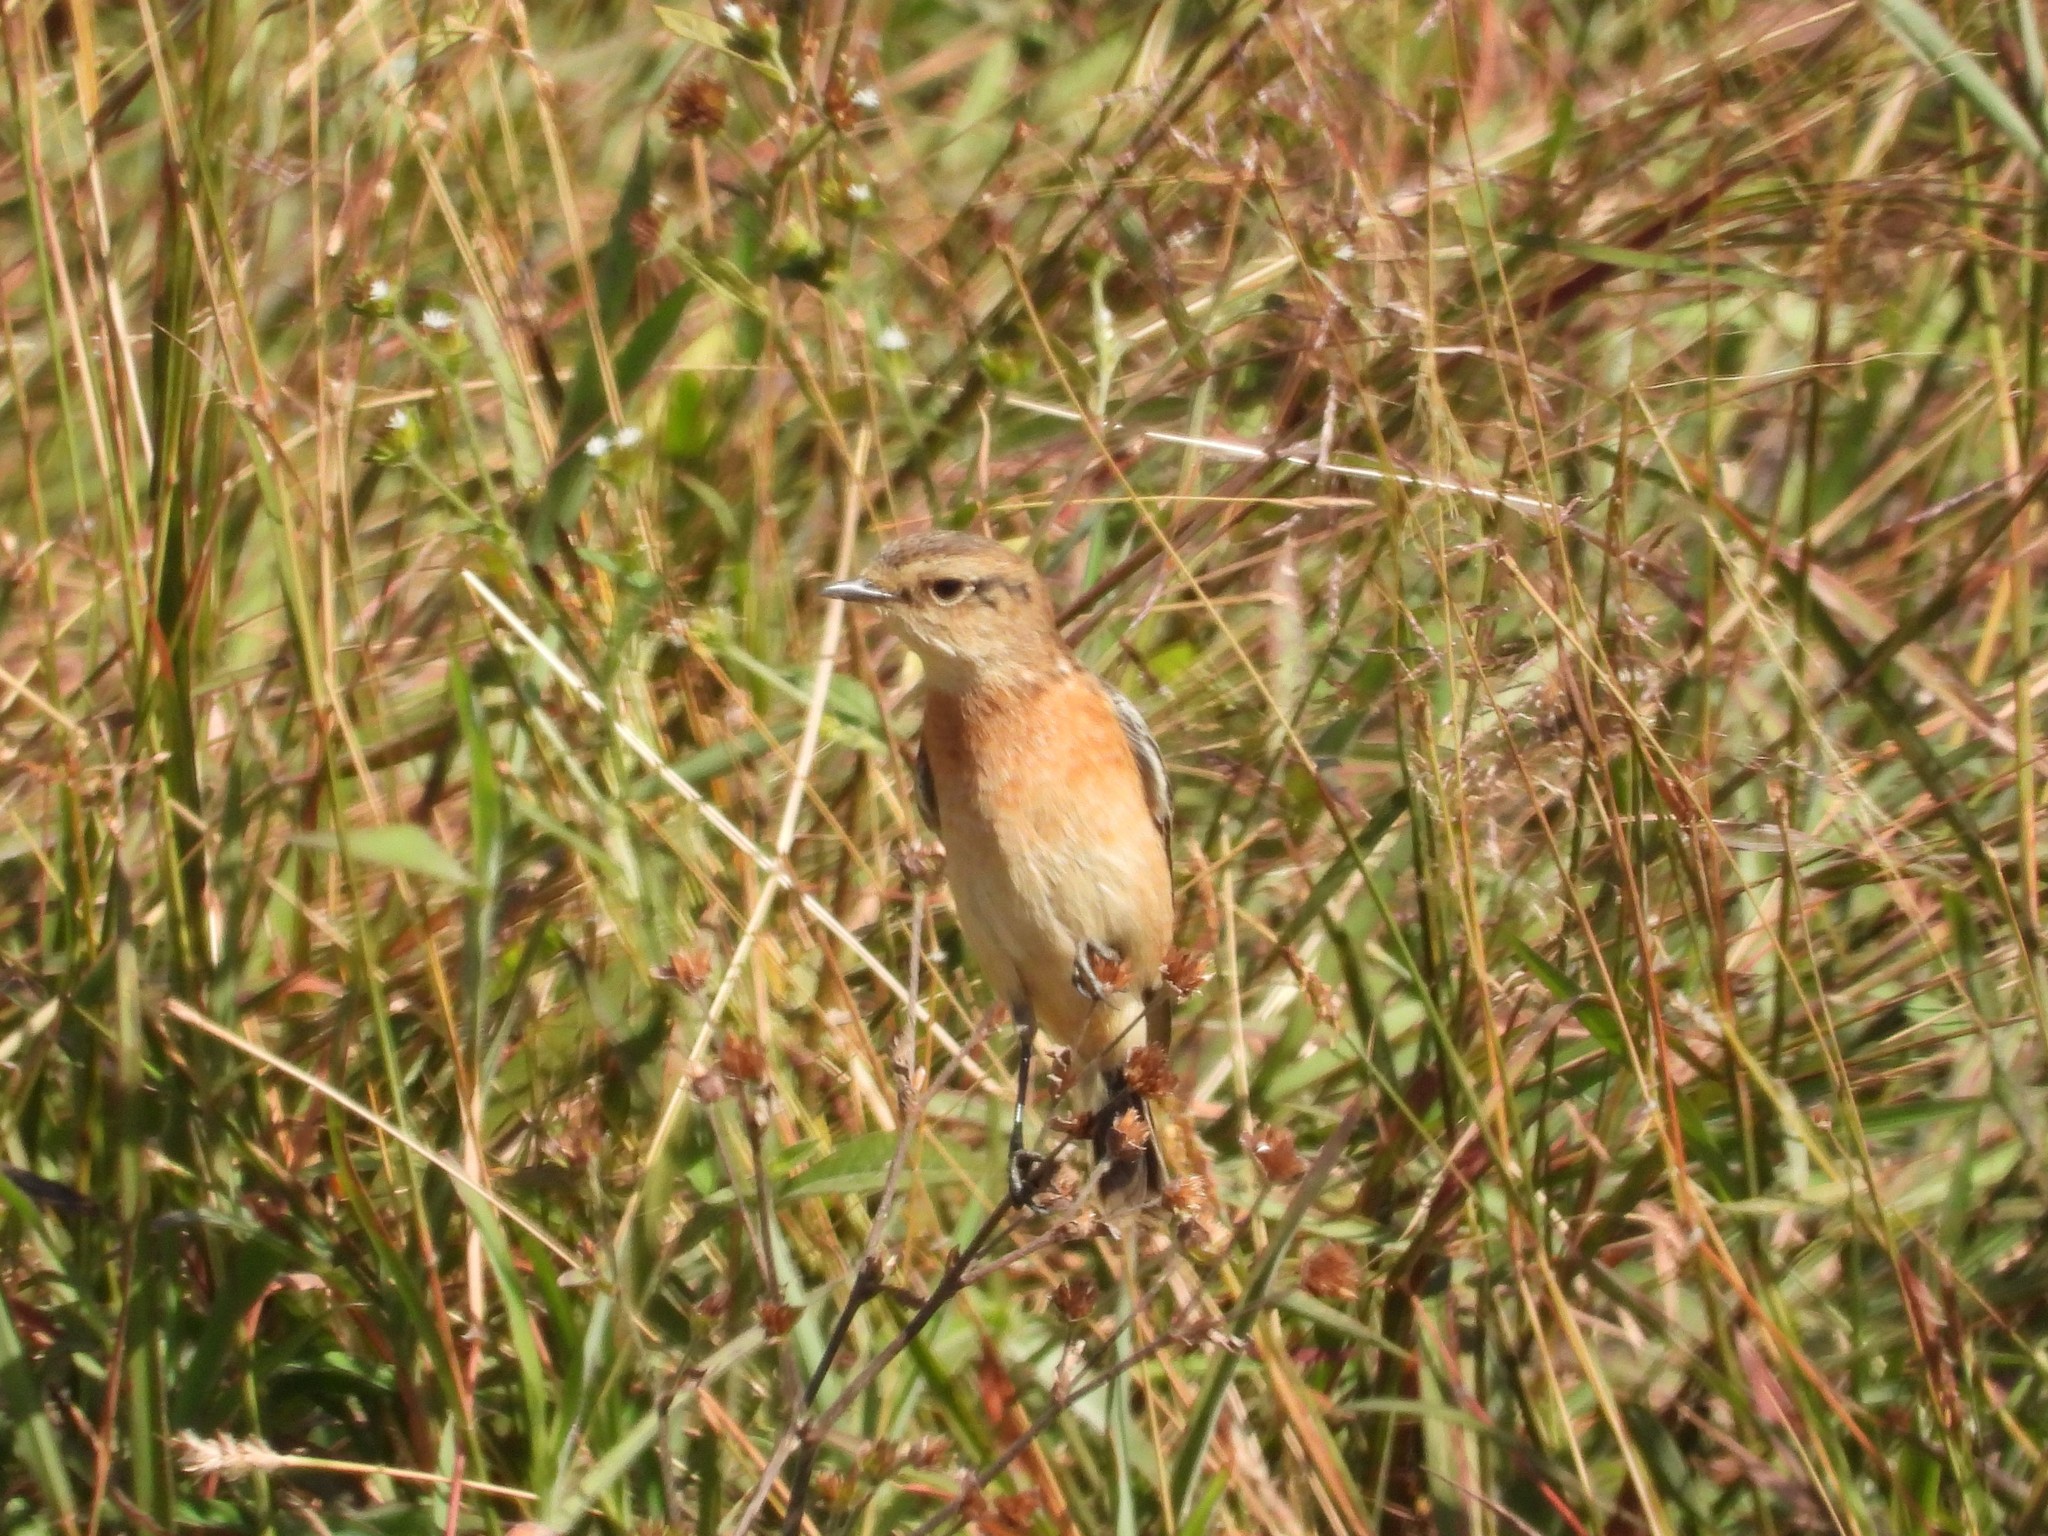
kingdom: Animalia
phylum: Chordata
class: Aves
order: Passeriformes
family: Muscicapidae
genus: Saxicola
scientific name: Saxicola stejnegeri
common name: Stejneger's stonechat
